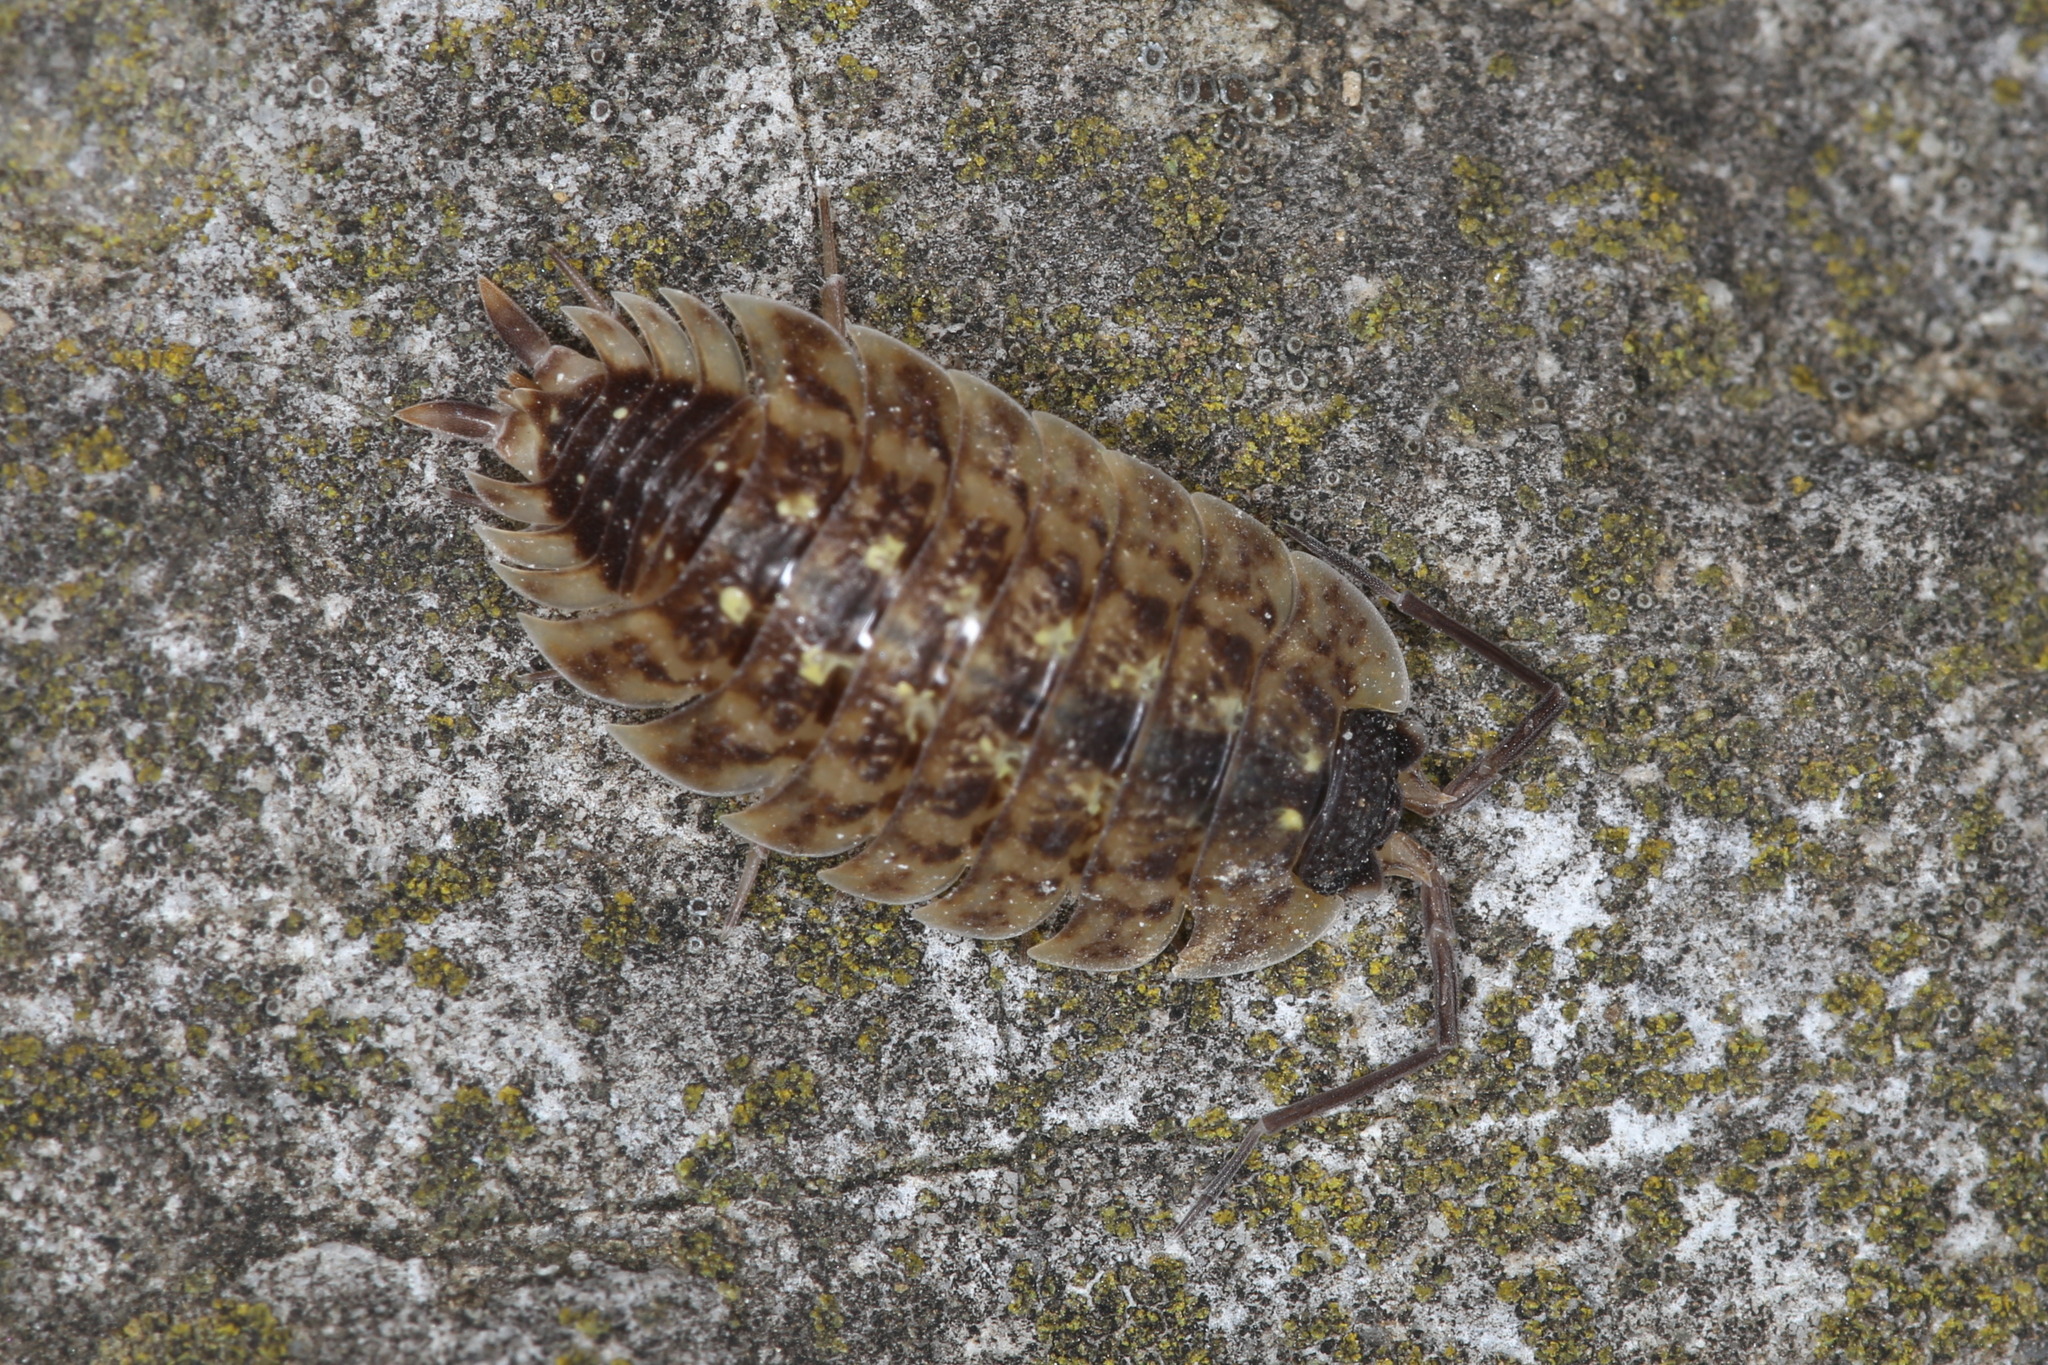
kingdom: Animalia
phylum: Arthropoda
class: Malacostraca
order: Isopoda
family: Porcellionidae
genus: Porcellio
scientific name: Porcellio spinicornis
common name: Painted woodlouse
